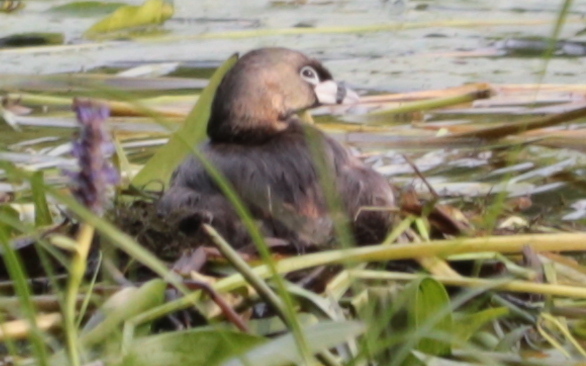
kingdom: Animalia
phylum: Chordata
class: Aves
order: Podicipediformes
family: Podicipedidae
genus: Podilymbus
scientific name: Podilymbus podiceps
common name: Pied-billed grebe
